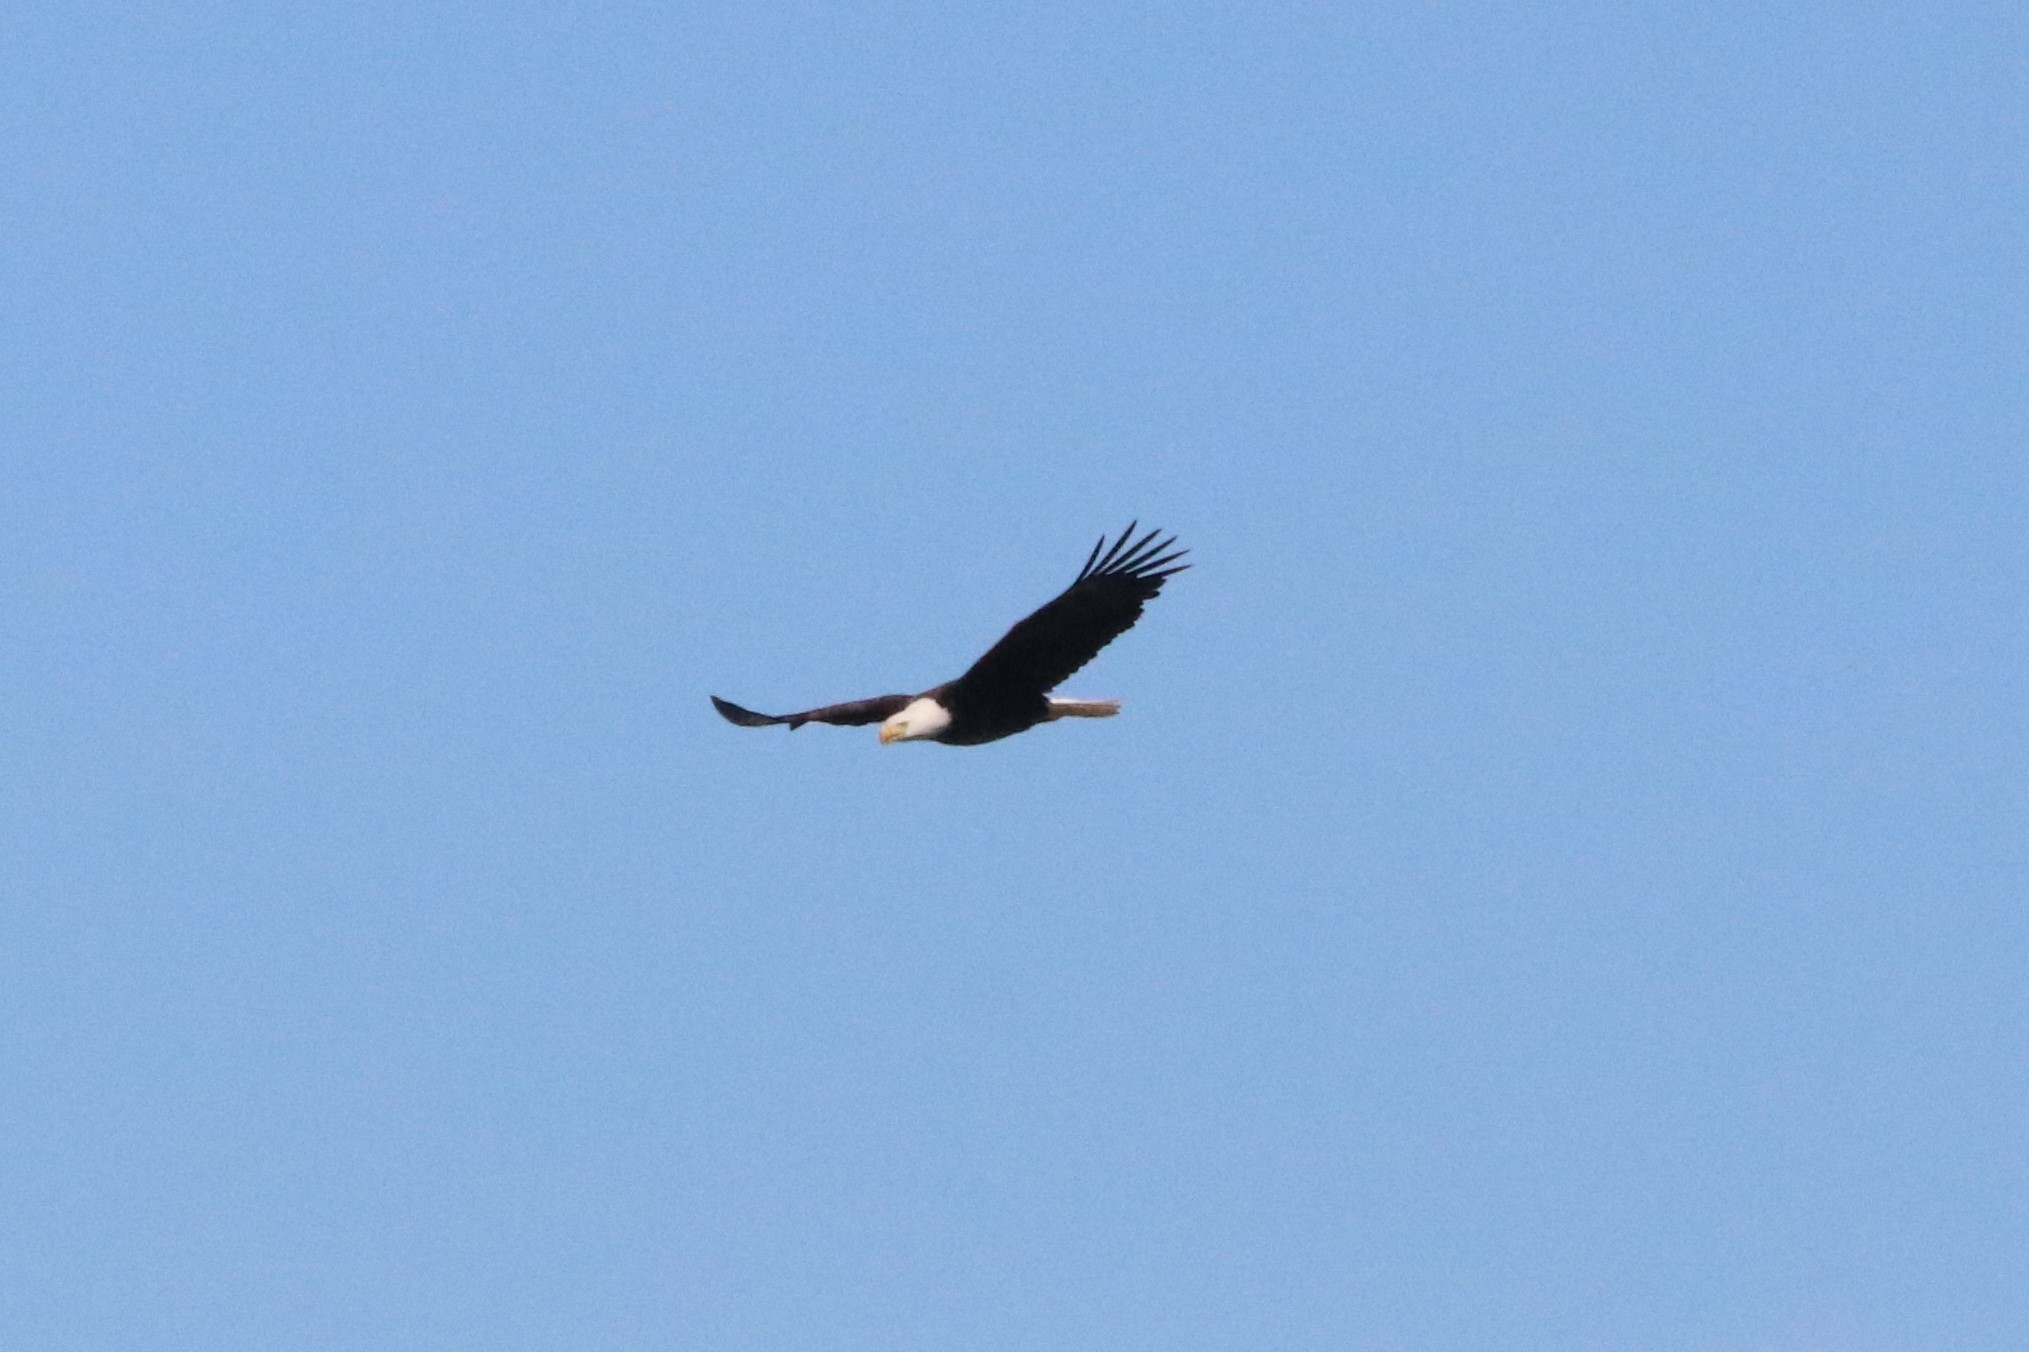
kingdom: Animalia
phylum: Chordata
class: Aves
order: Accipitriformes
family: Accipitridae
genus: Haliaeetus
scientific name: Haliaeetus leucocephalus
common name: Bald eagle
